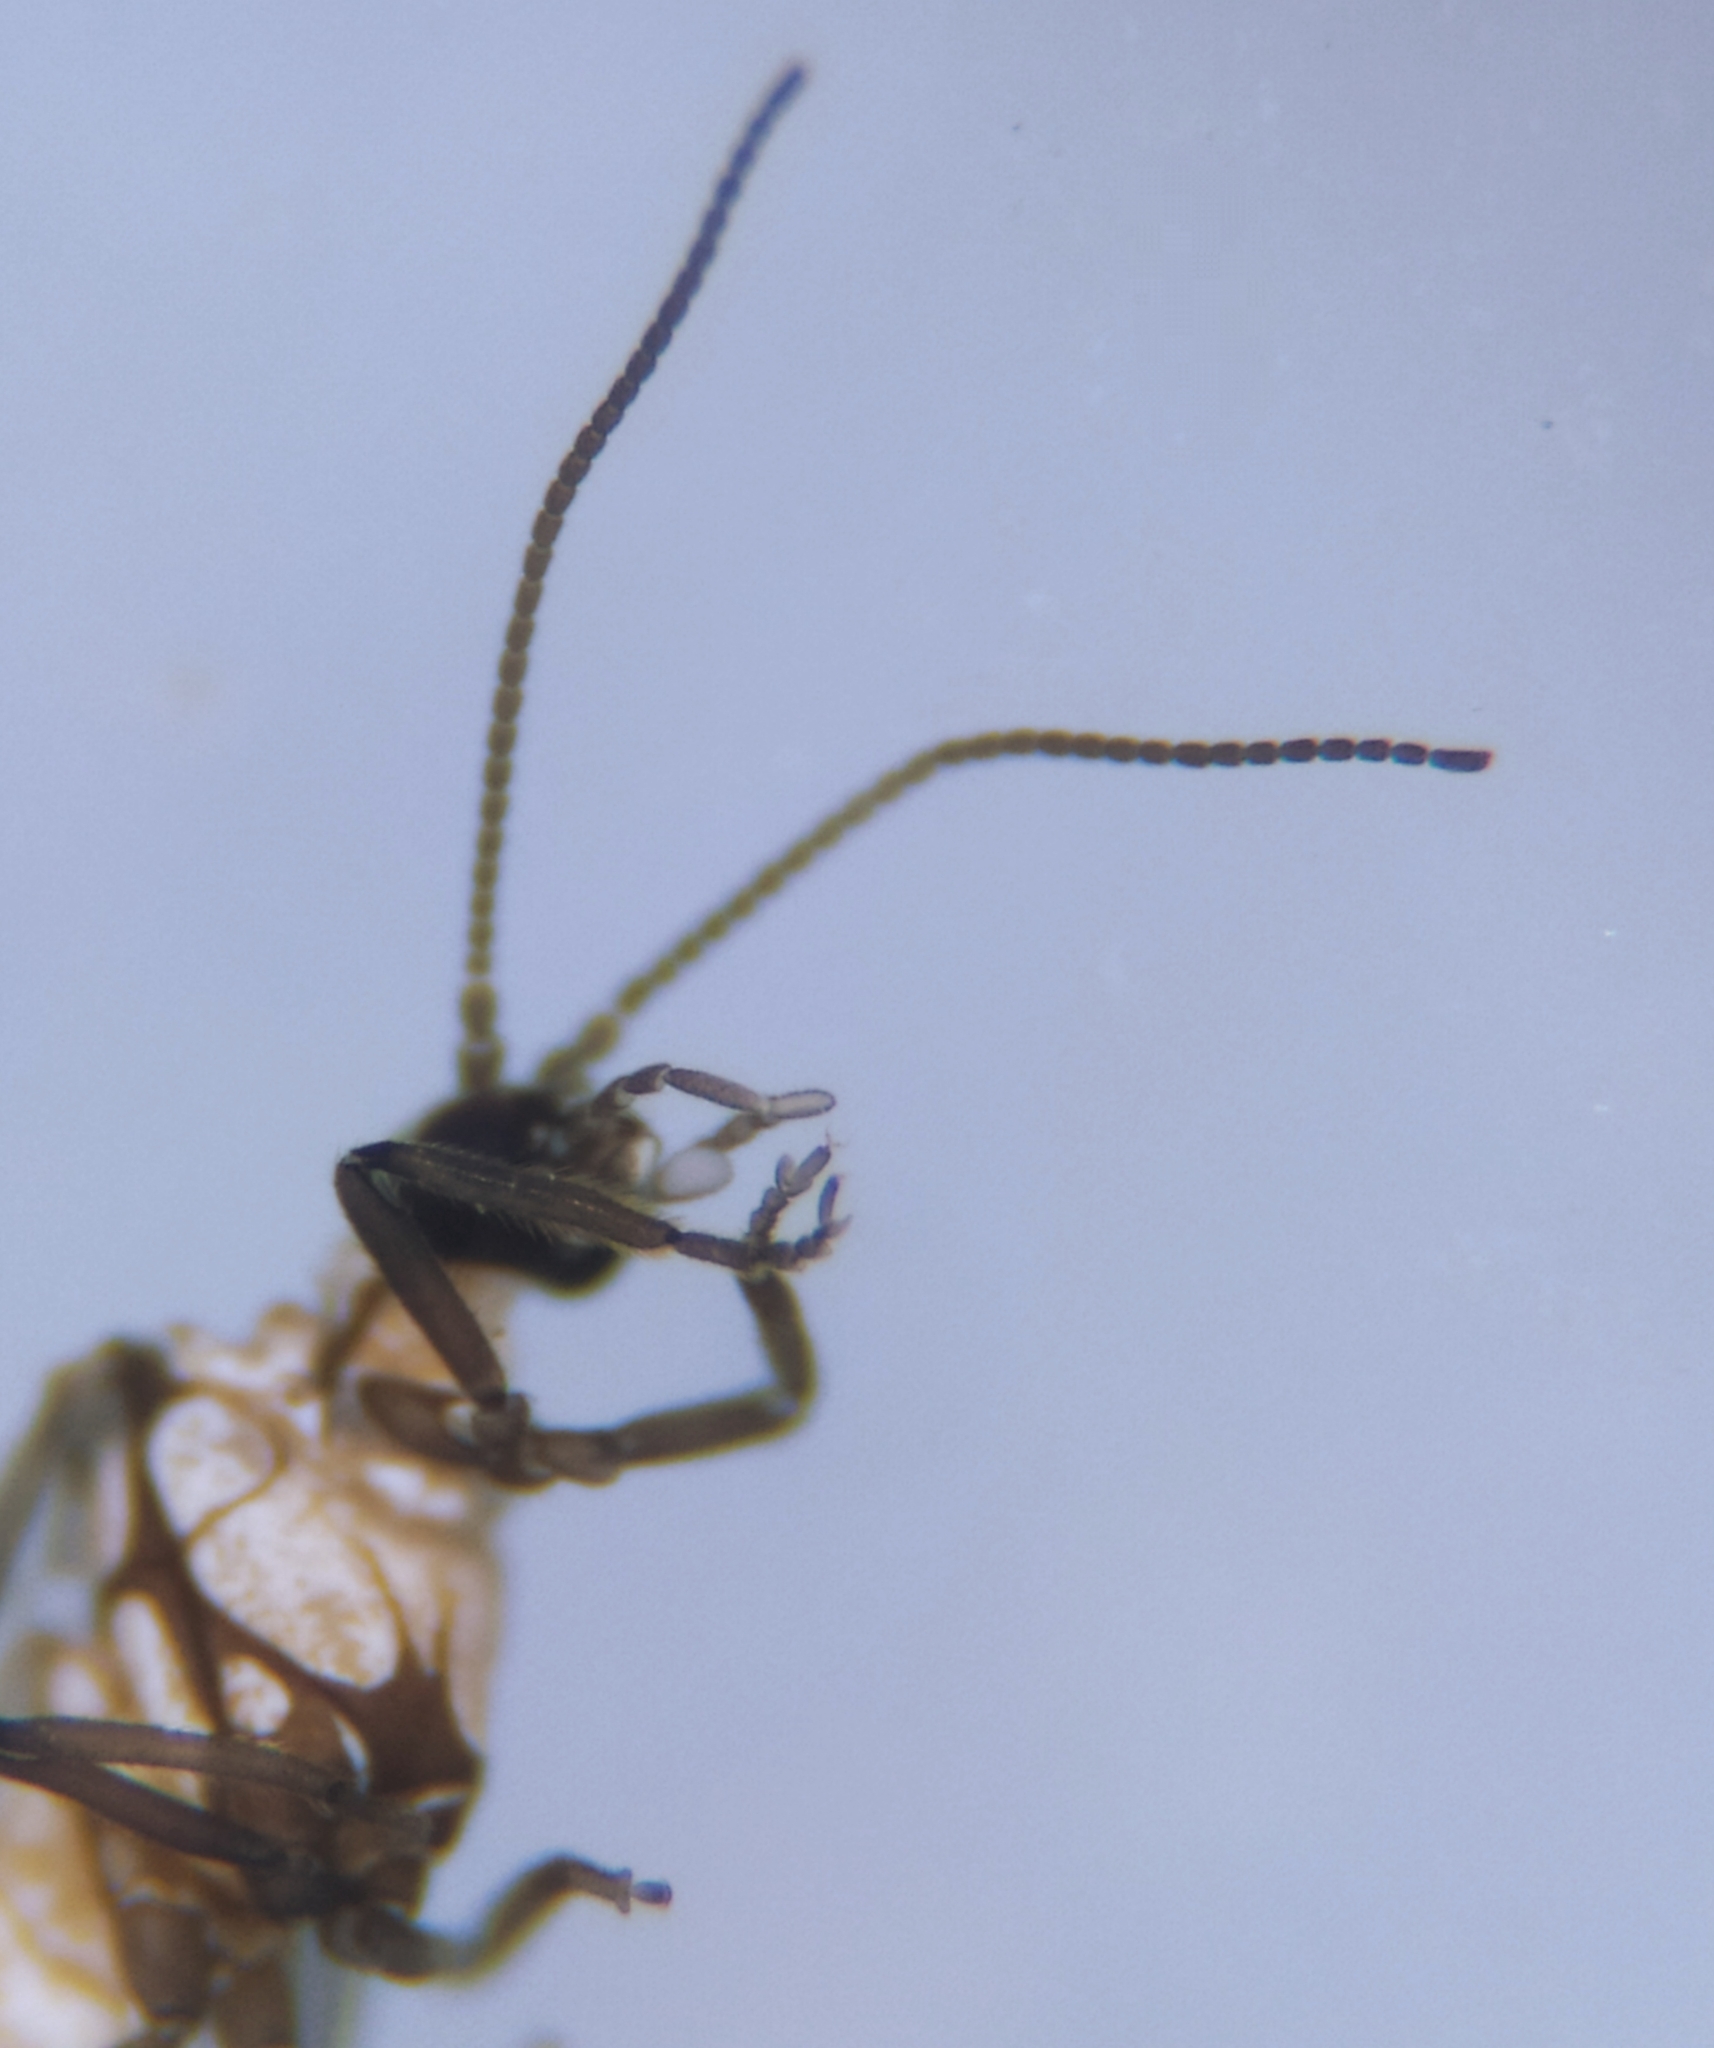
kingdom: Animalia
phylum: Arthropoda
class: Insecta
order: Neuroptera
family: Coniopterygidae
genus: Conwentzia
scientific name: Conwentzia pineticola
